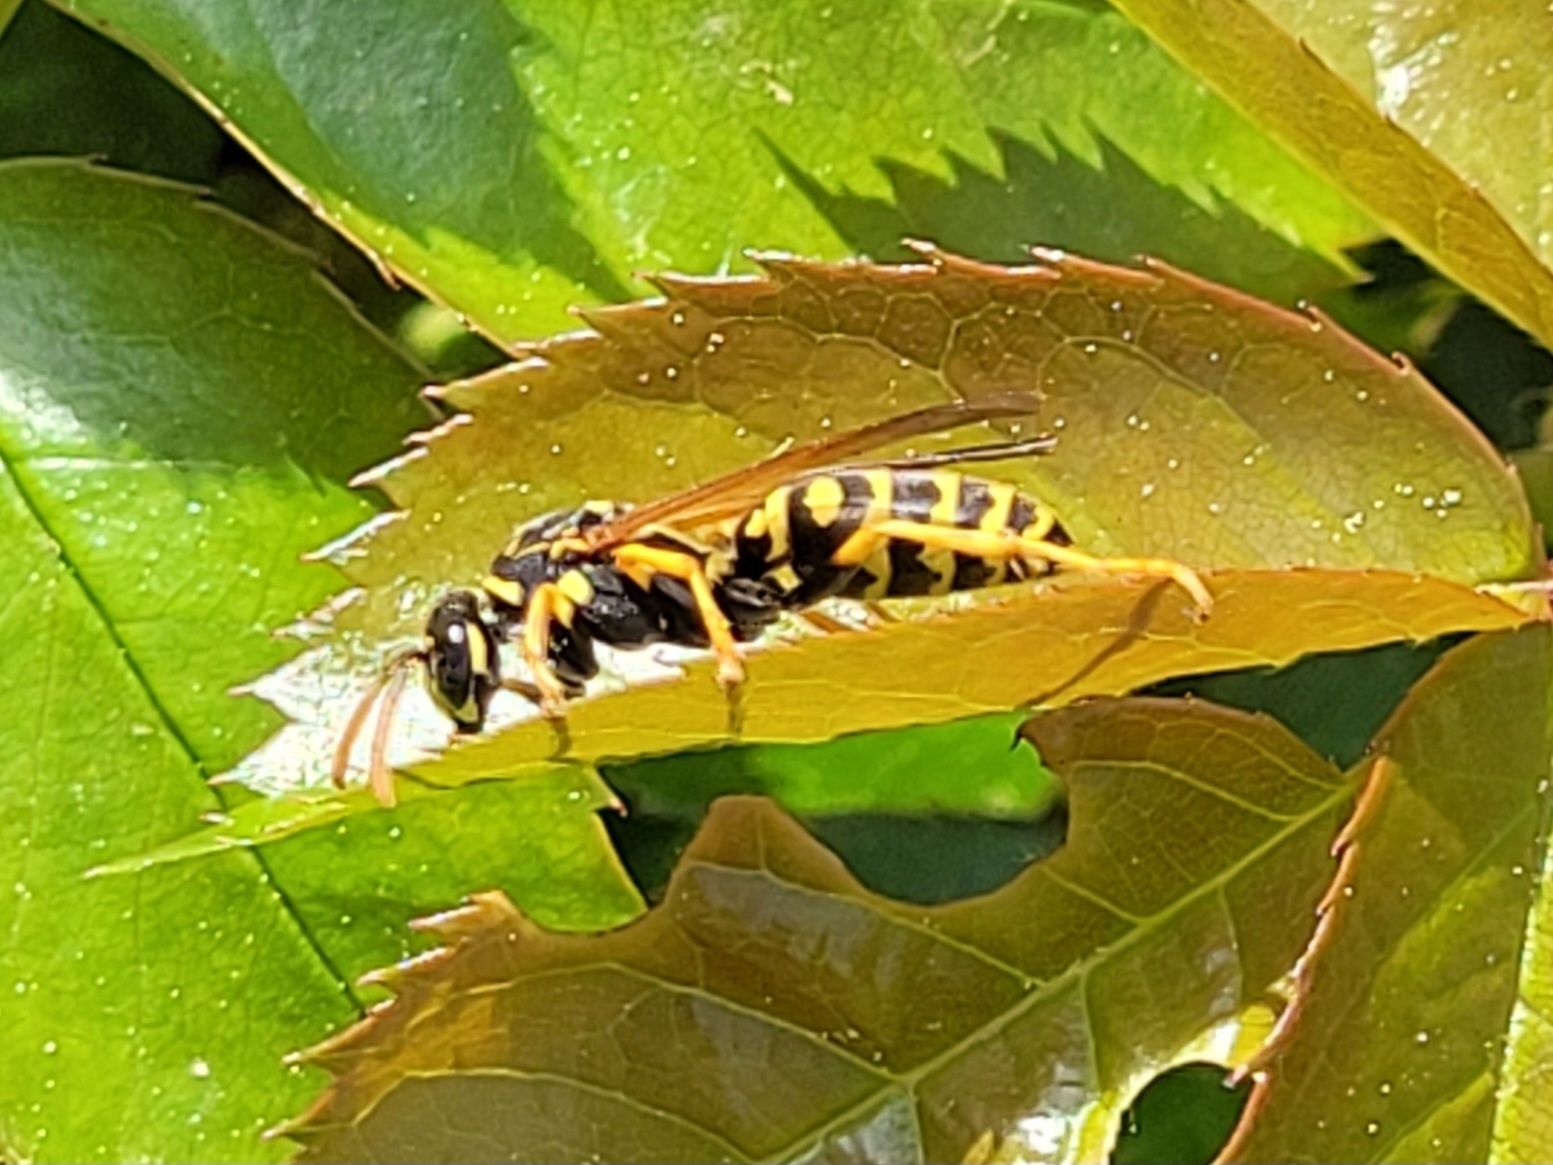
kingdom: Animalia
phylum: Arthropoda
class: Insecta
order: Hymenoptera
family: Eumenidae
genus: Polistes
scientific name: Polistes dominula
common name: Paper wasp
